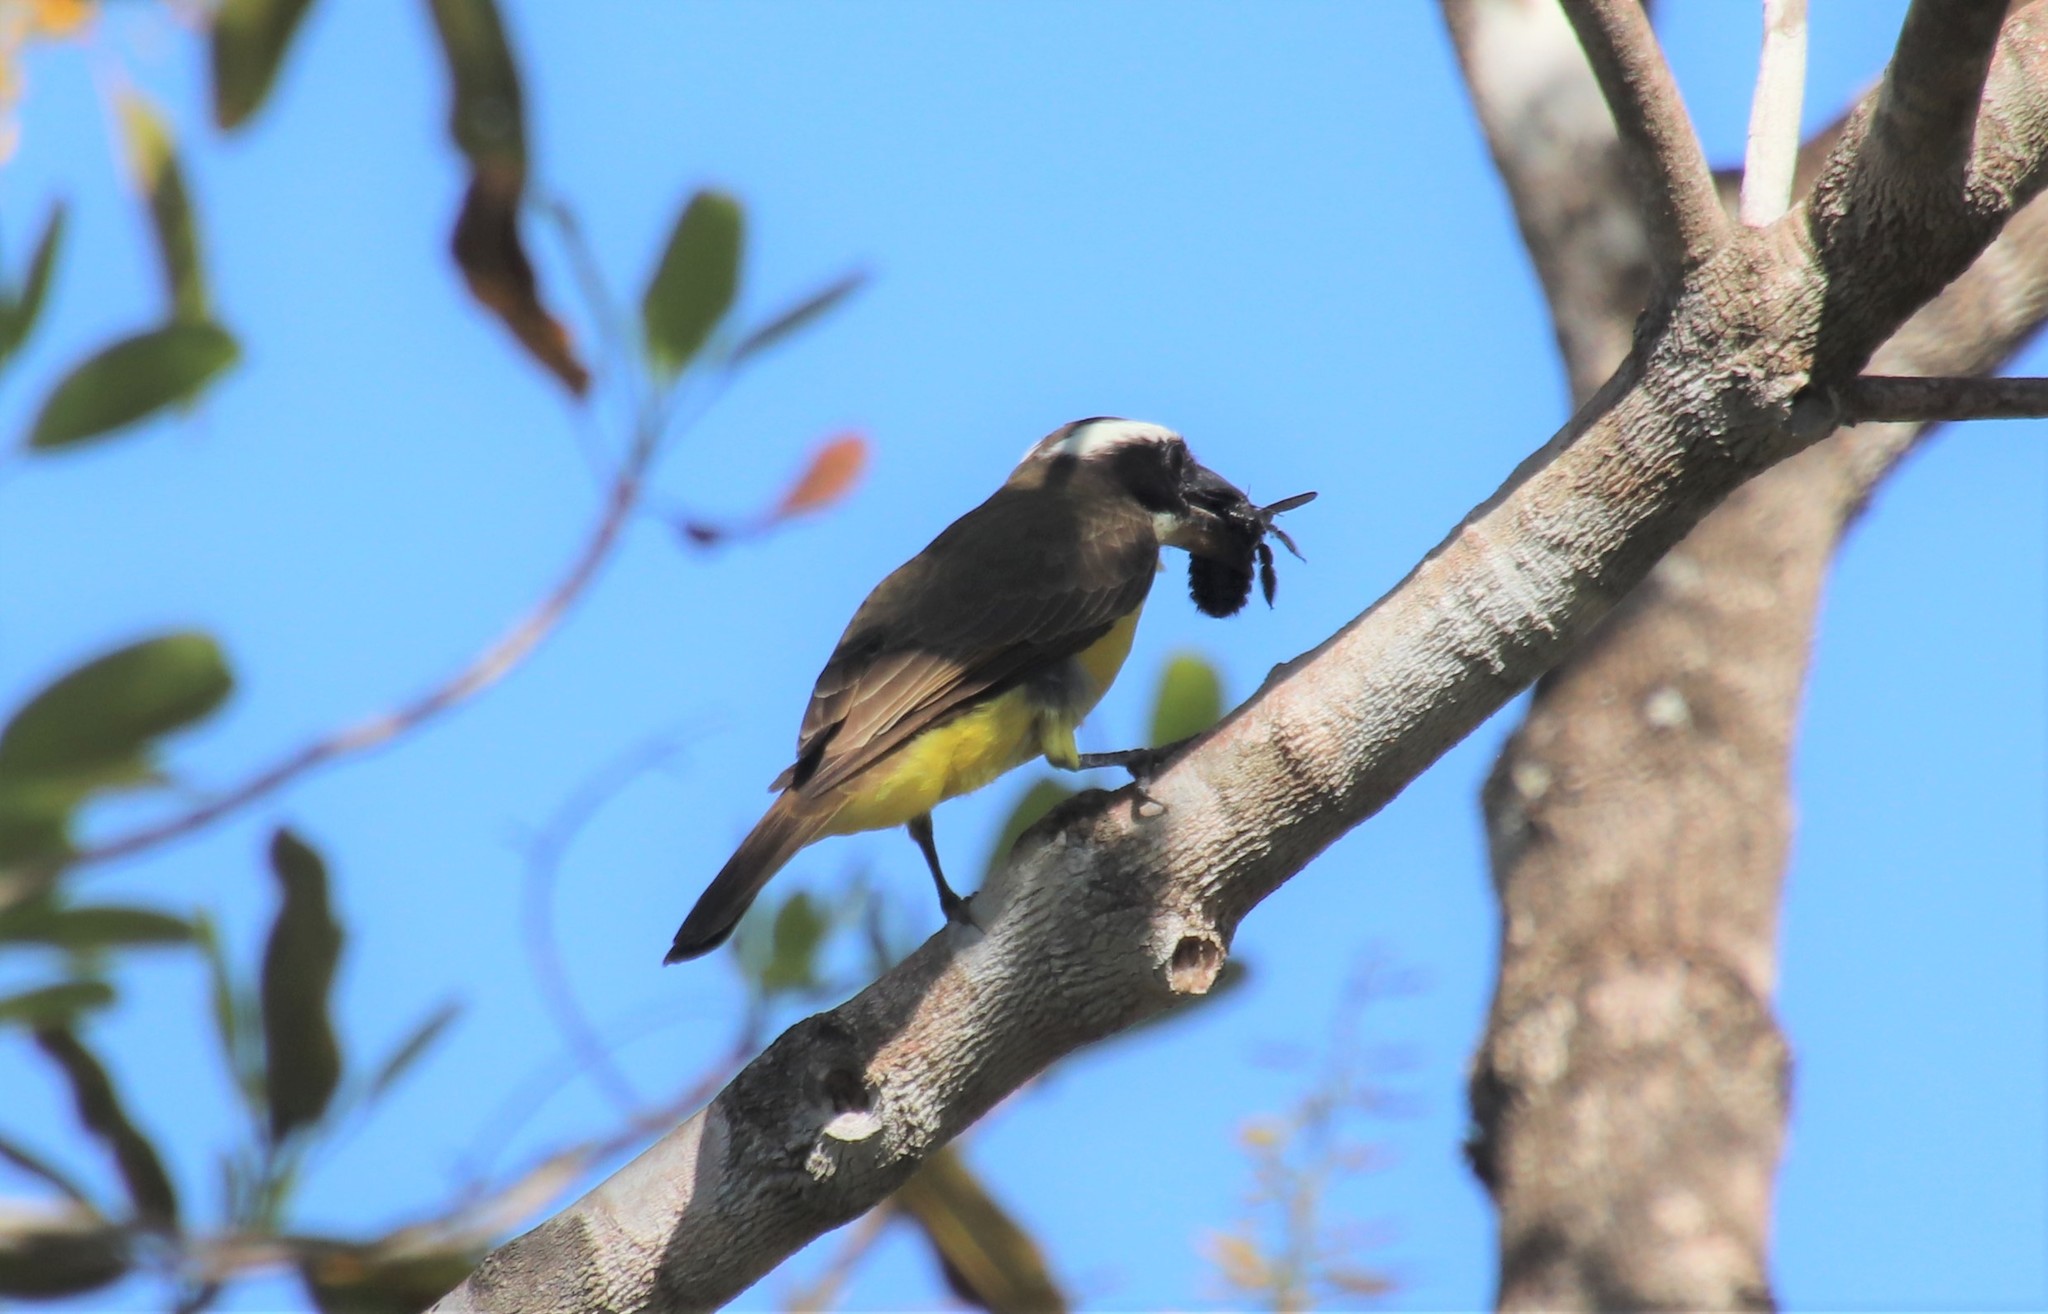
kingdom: Animalia
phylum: Chordata
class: Aves
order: Passeriformes
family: Tyrannidae
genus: Pitangus
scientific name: Pitangus sulphuratus
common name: Great kiskadee
